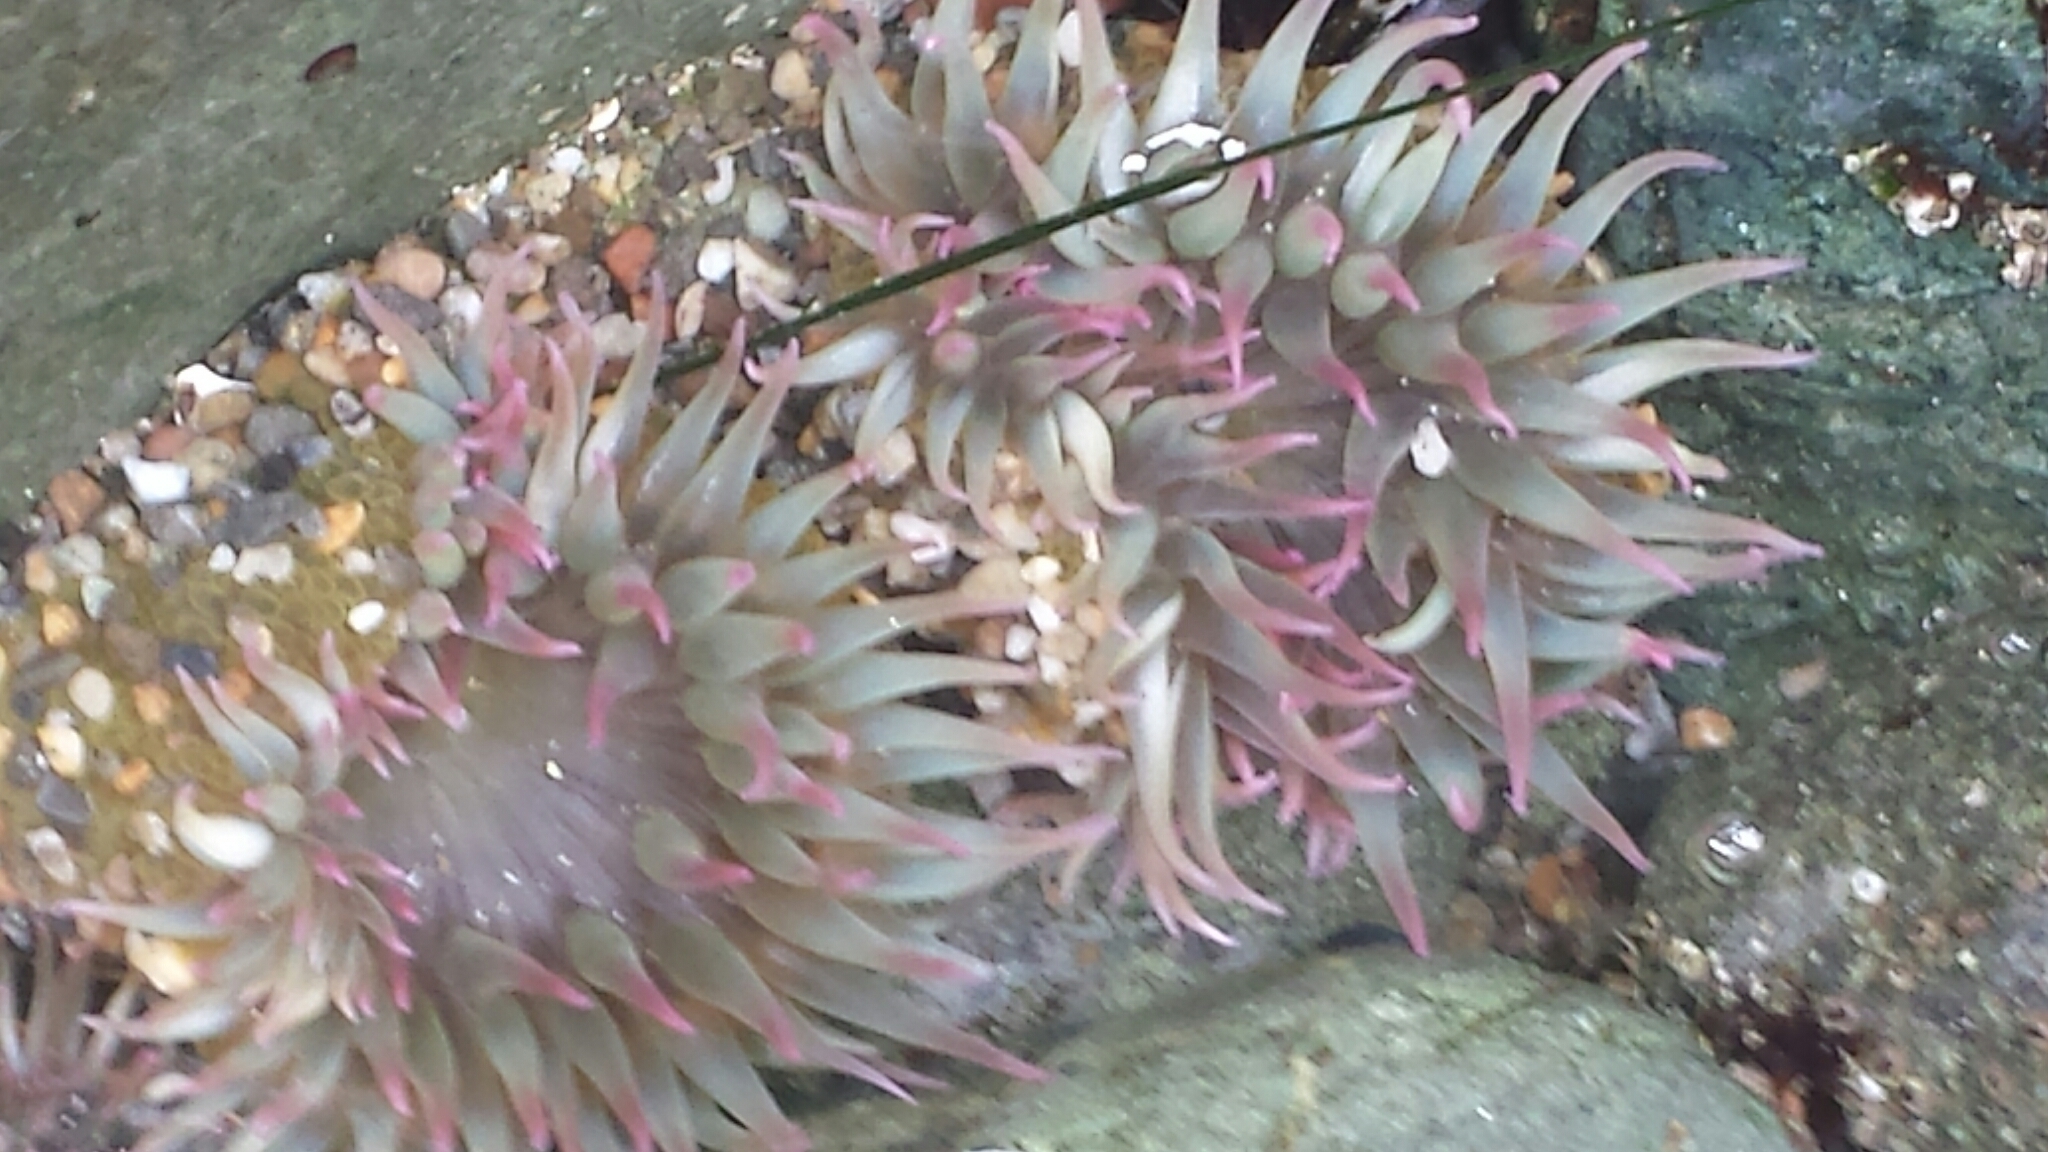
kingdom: Animalia
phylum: Cnidaria
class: Anthozoa
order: Actiniaria
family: Actiniidae
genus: Anthopleura
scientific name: Anthopleura elegantissima
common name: Clonal anemone
